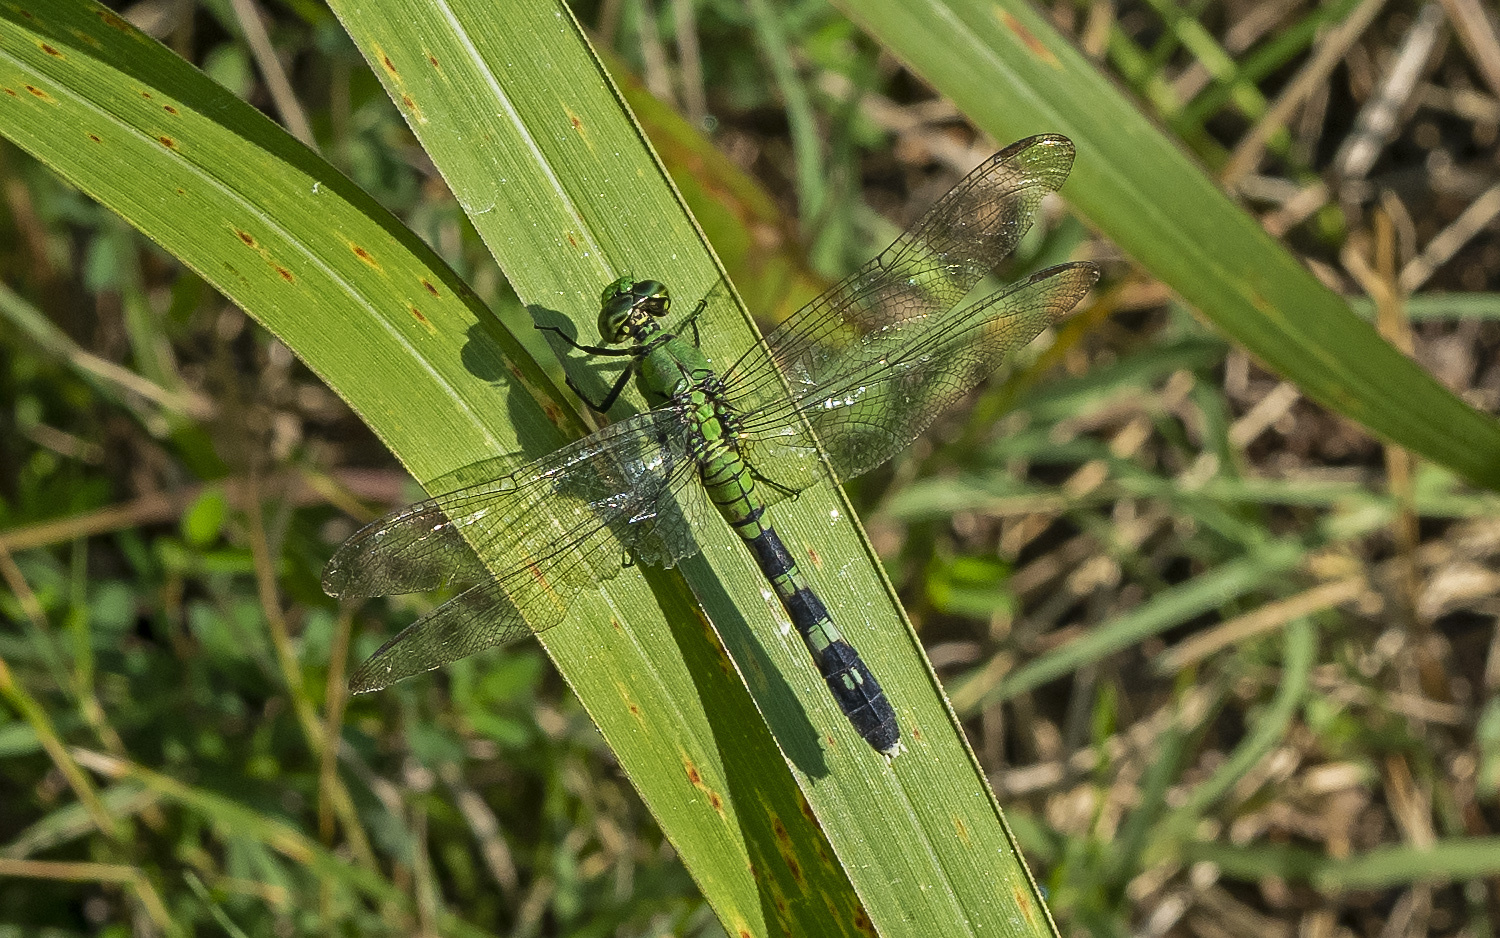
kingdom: Animalia
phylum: Arthropoda
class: Insecta
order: Odonata
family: Libellulidae
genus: Erythemis
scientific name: Erythemis simplicicollis
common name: Eastern pondhawk
